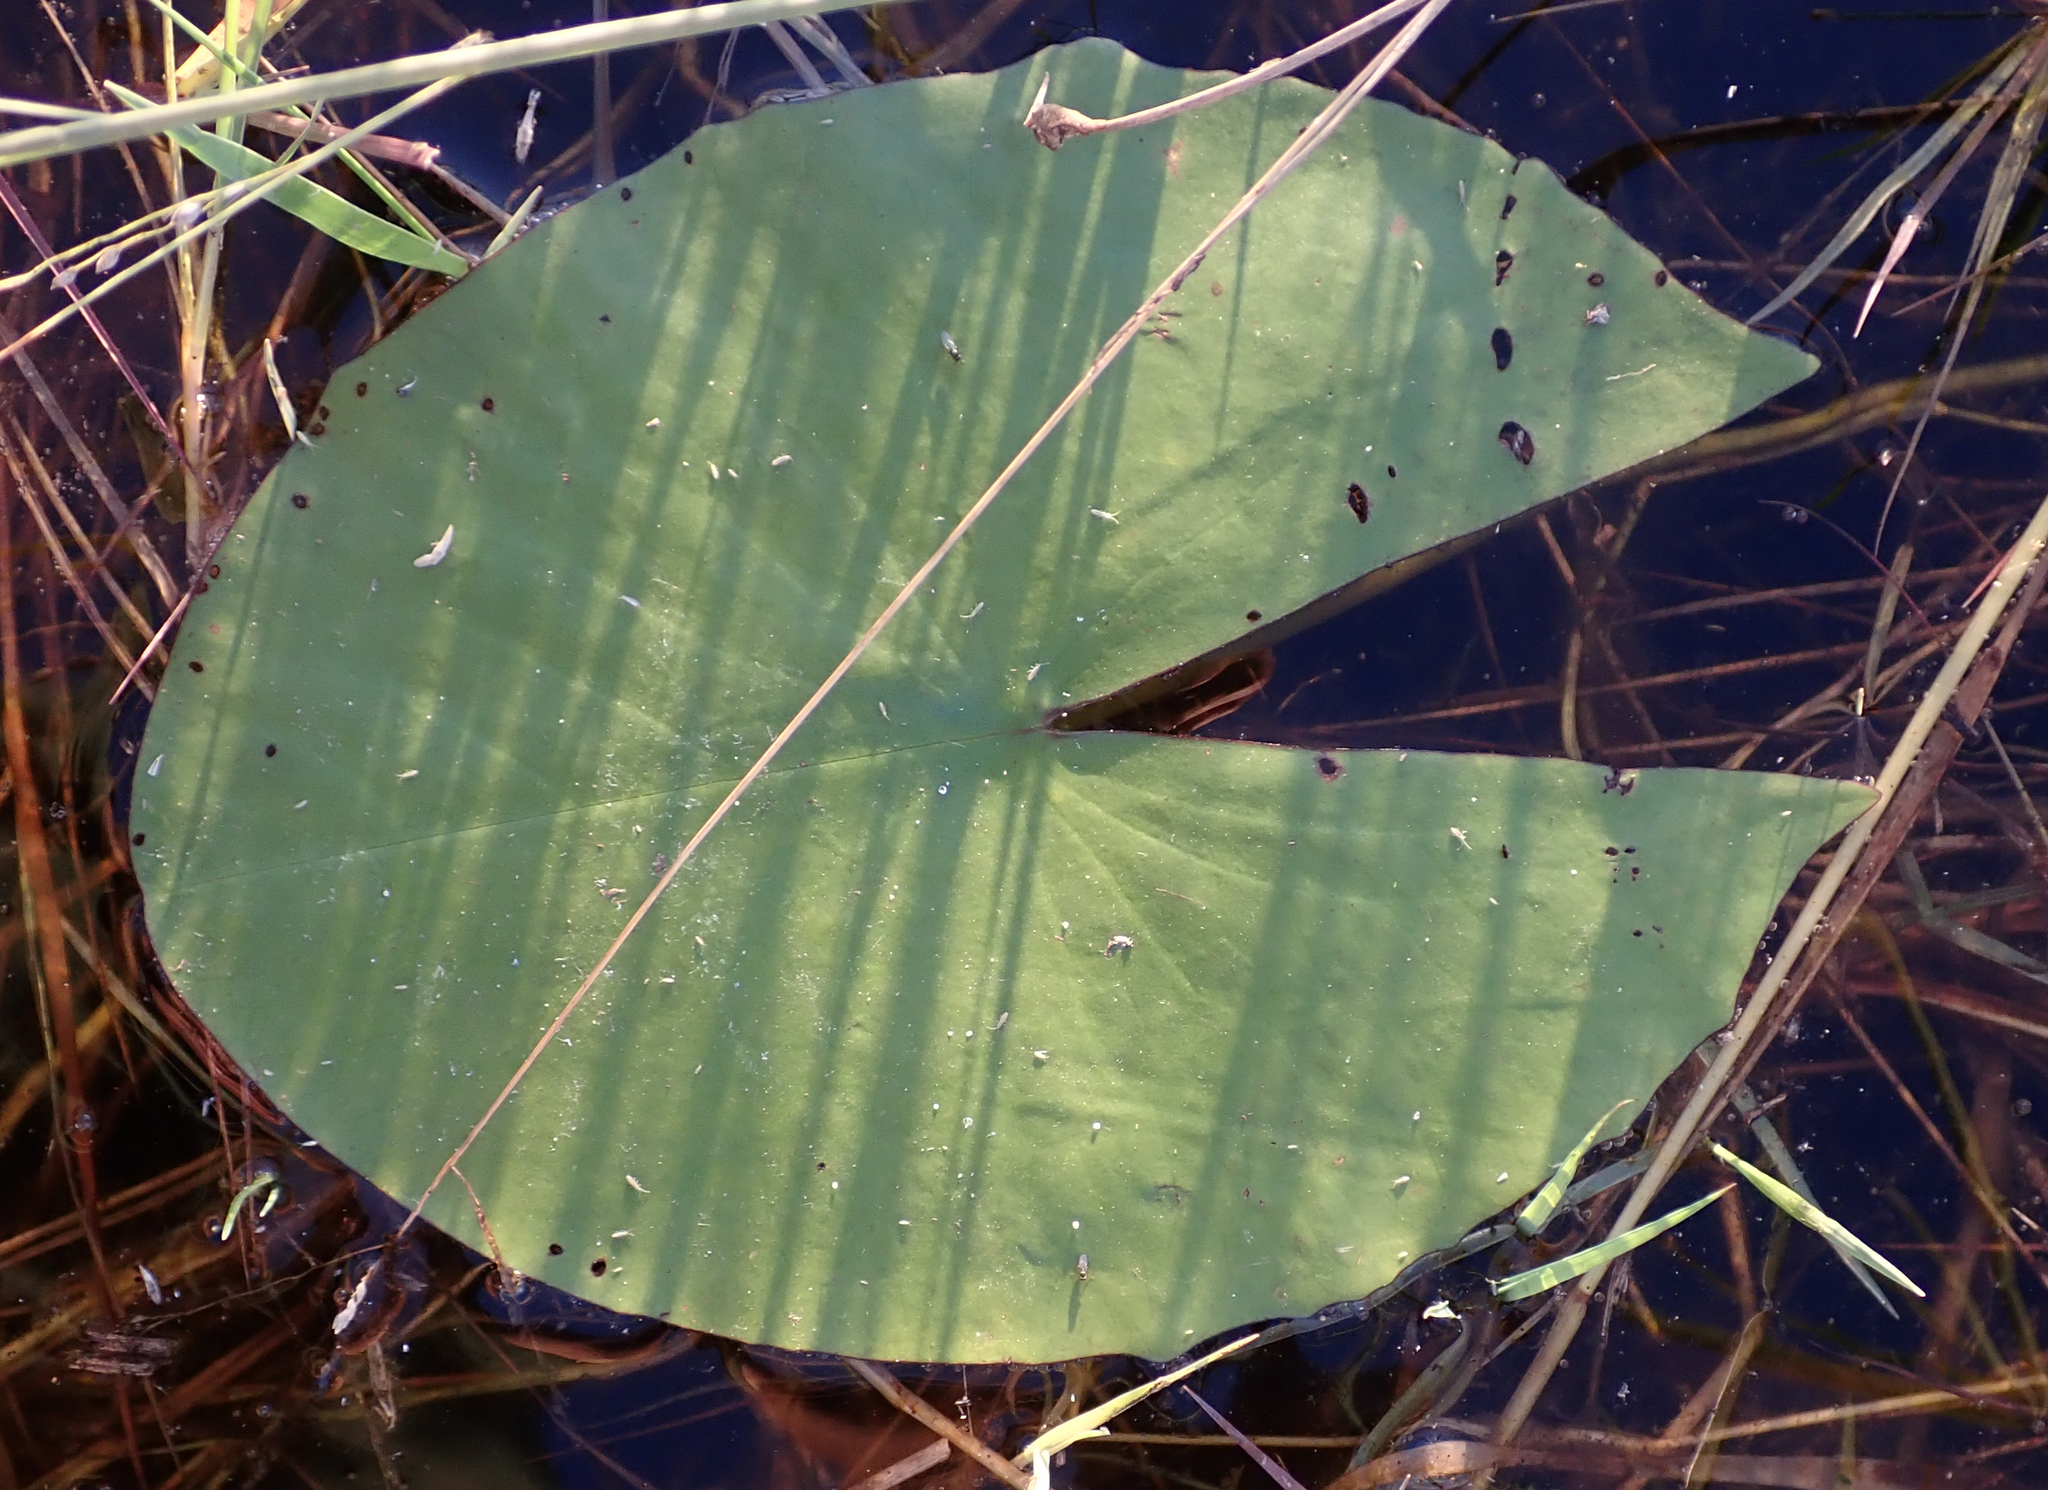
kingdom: Plantae
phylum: Tracheophyta
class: Magnoliopsida
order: Nymphaeales
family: Nymphaeaceae
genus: Nymphaea
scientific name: Nymphaea nouchali
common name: Blue lotus
